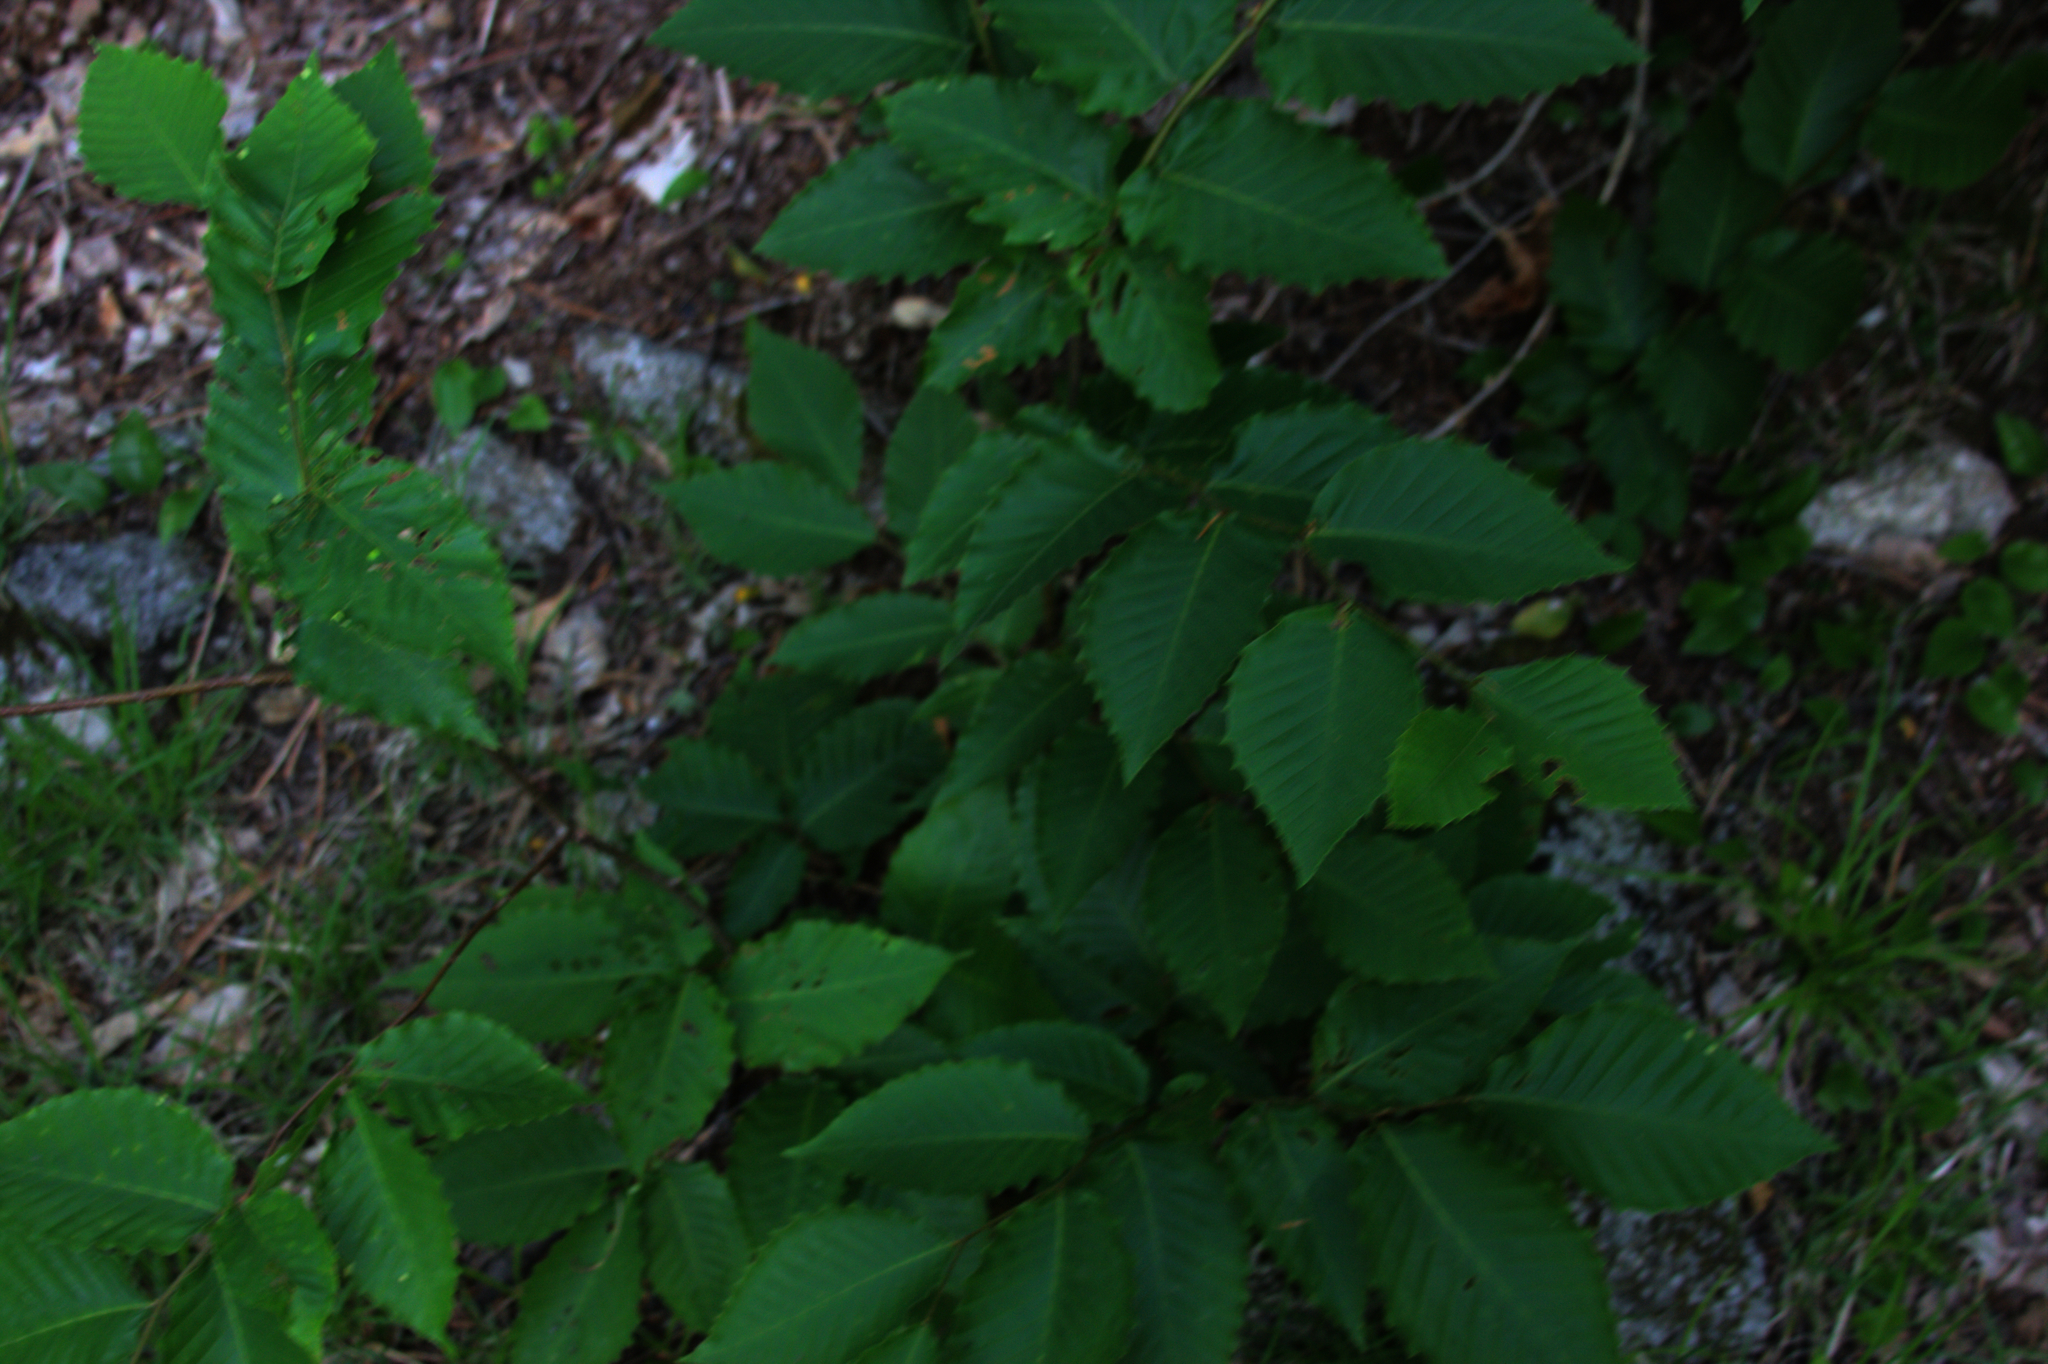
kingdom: Plantae
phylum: Tracheophyta
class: Magnoliopsida
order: Fagales
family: Fagaceae
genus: Fagus
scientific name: Fagus grandifolia
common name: American beech
